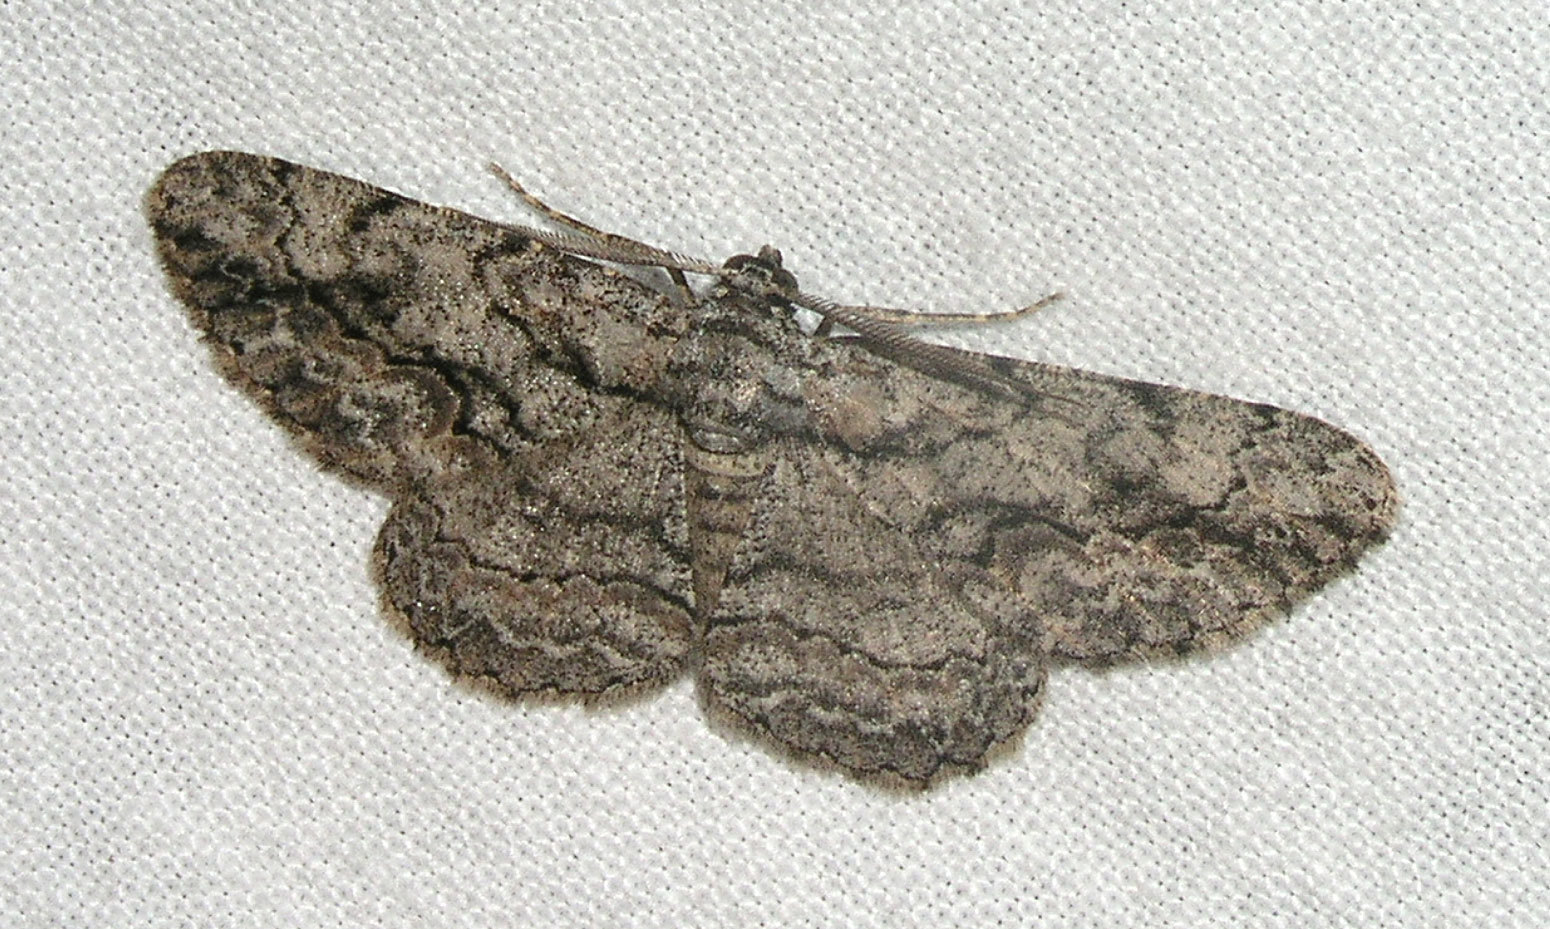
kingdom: Animalia
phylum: Arthropoda
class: Insecta
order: Lepidoptera
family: Geometridae
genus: Anavitrinella
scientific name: Anavitrinella pampinaria
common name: Common gray
